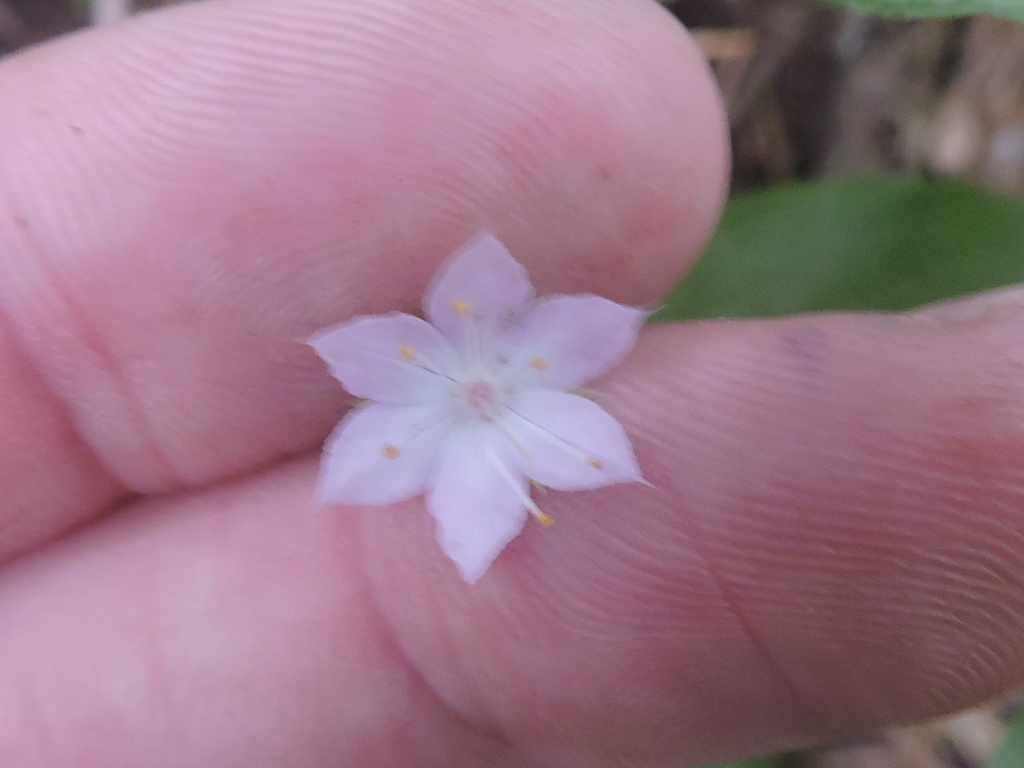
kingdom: Plantae
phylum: Tracheophyta
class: Magnoliopsida
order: Ericales
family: Primulaceae
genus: Lysimachia
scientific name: Lysimachia latifolia
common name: Pacific starflower
